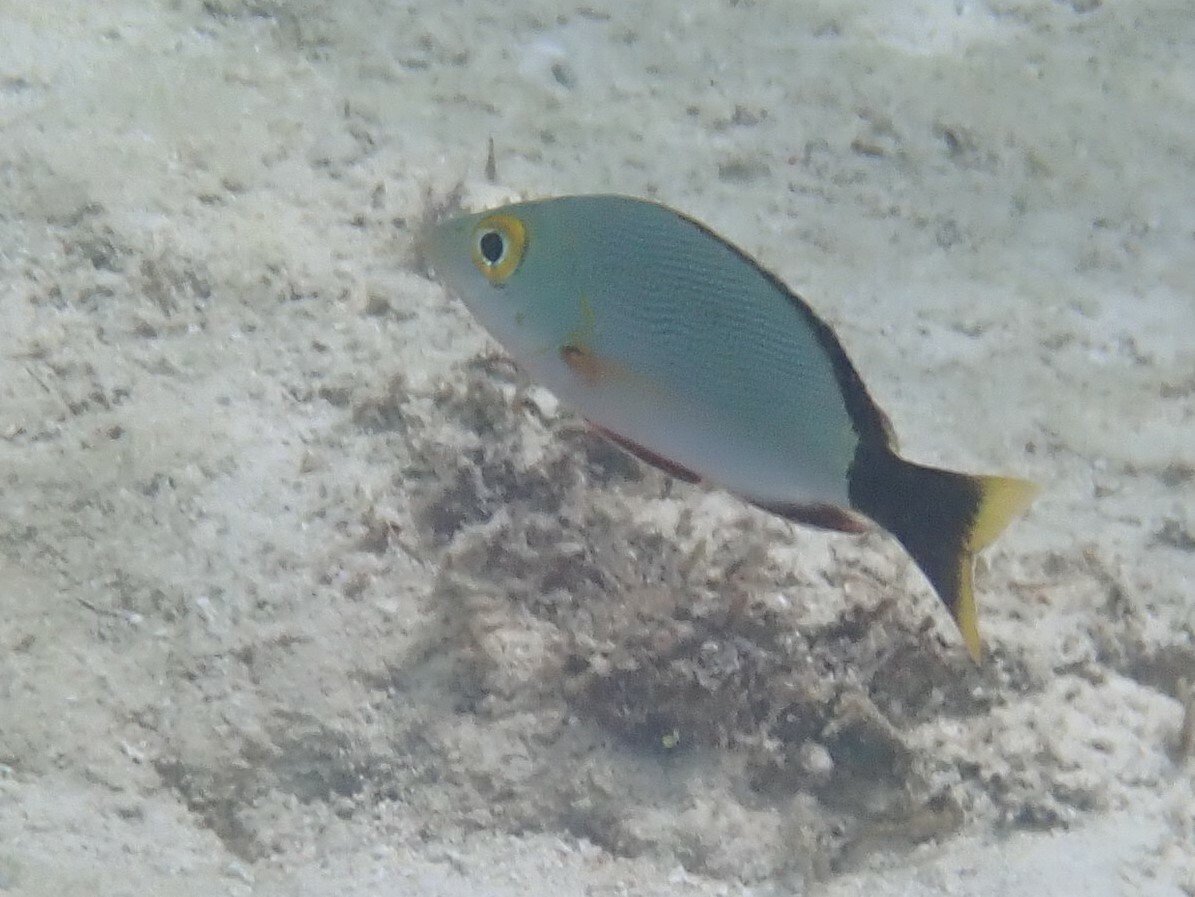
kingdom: Animalia
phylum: Chordata
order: Perciformes
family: Lutjanidae
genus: Lutjanus
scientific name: Lutjanus gibbus
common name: Humpback snapper
